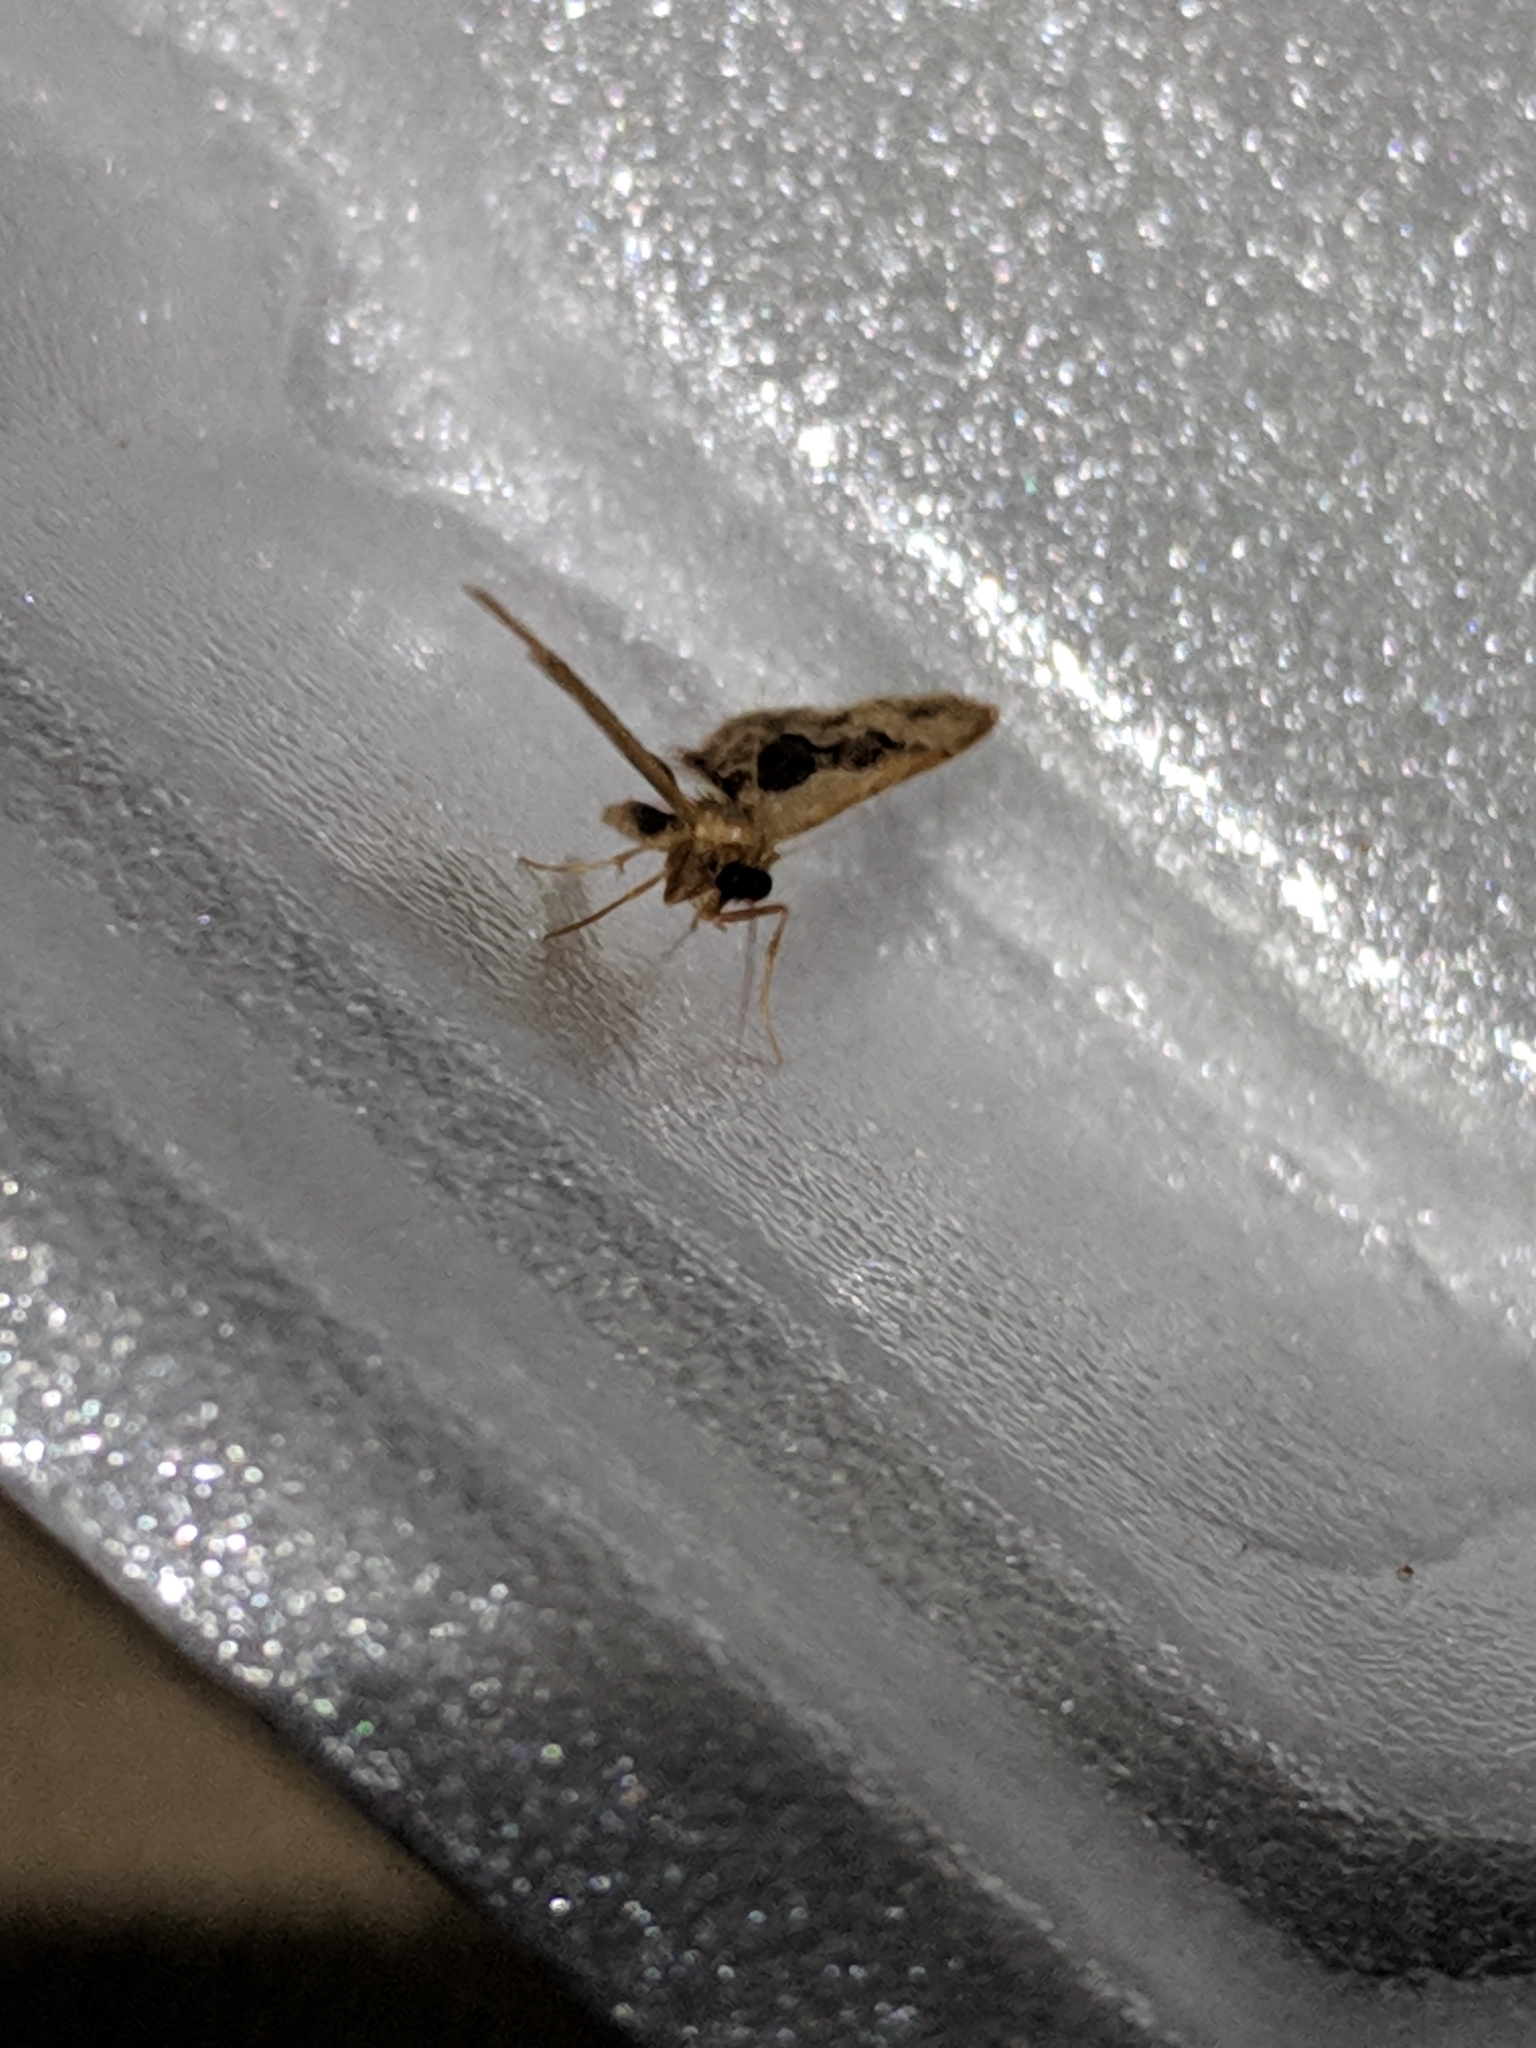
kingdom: Animalia
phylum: Arthropoda
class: Insecta
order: Lepidoptera
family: Geometridae
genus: Idaea
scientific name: Idaea gemmata
